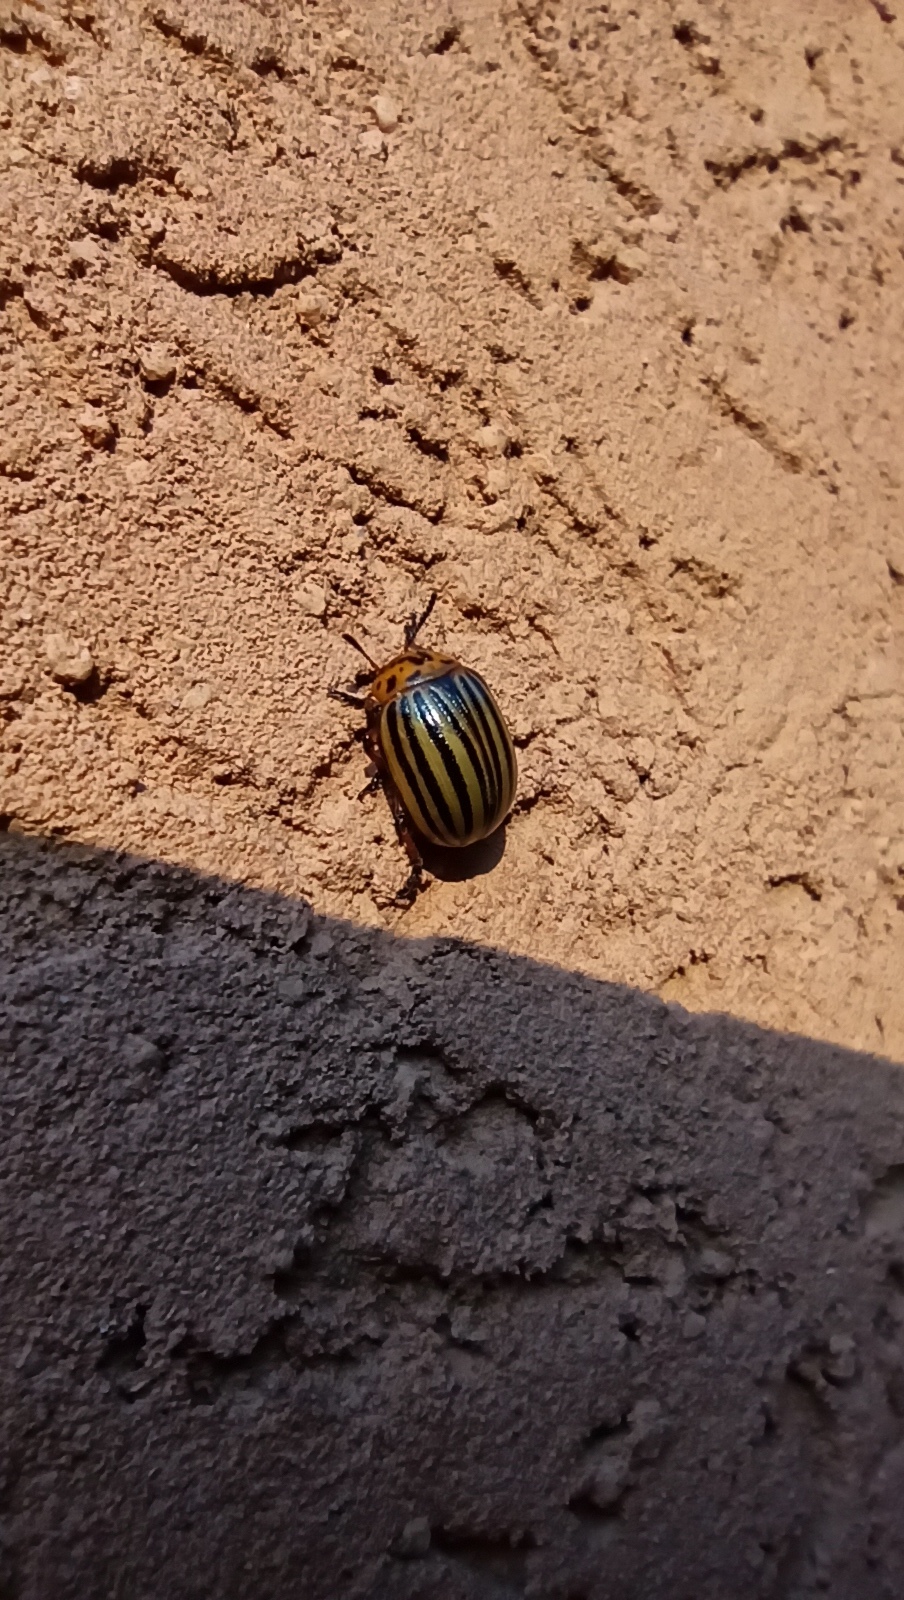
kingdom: Animalia
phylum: Arthropoda
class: Insecta
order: Coleoptera
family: Chrysomelidae
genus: Leptinotarsa
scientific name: Leptinotarsa decemlineata
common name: Colorado potato beetle
